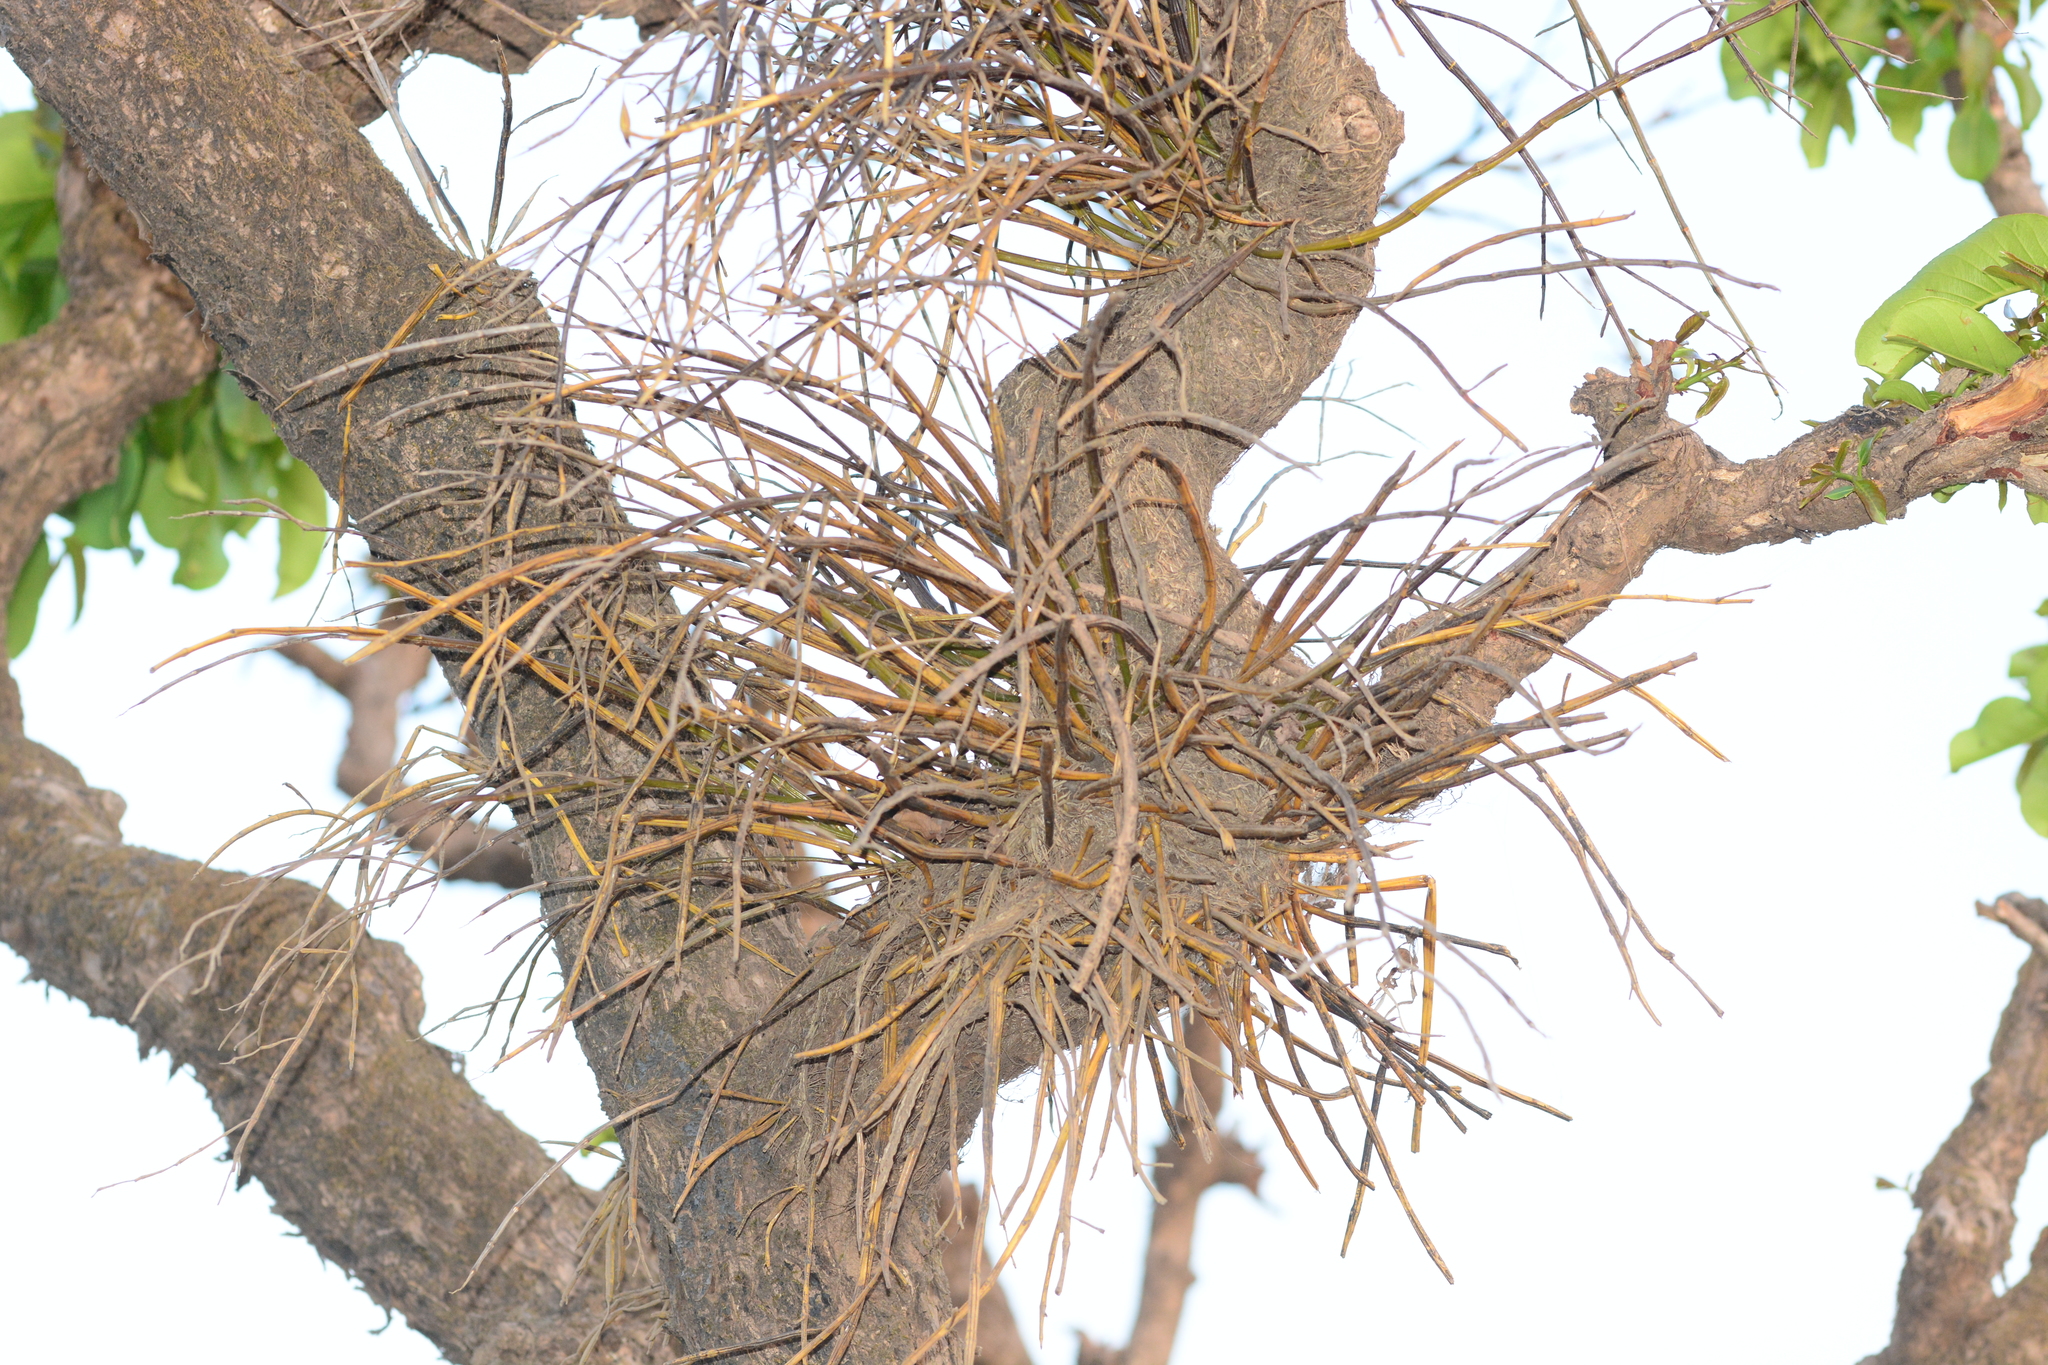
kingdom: Plantae
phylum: Tracheophyta
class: Liliopsida
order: Asparagales
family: Orchidaceae
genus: Dendrobium
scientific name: Dendrobium herbaceum
